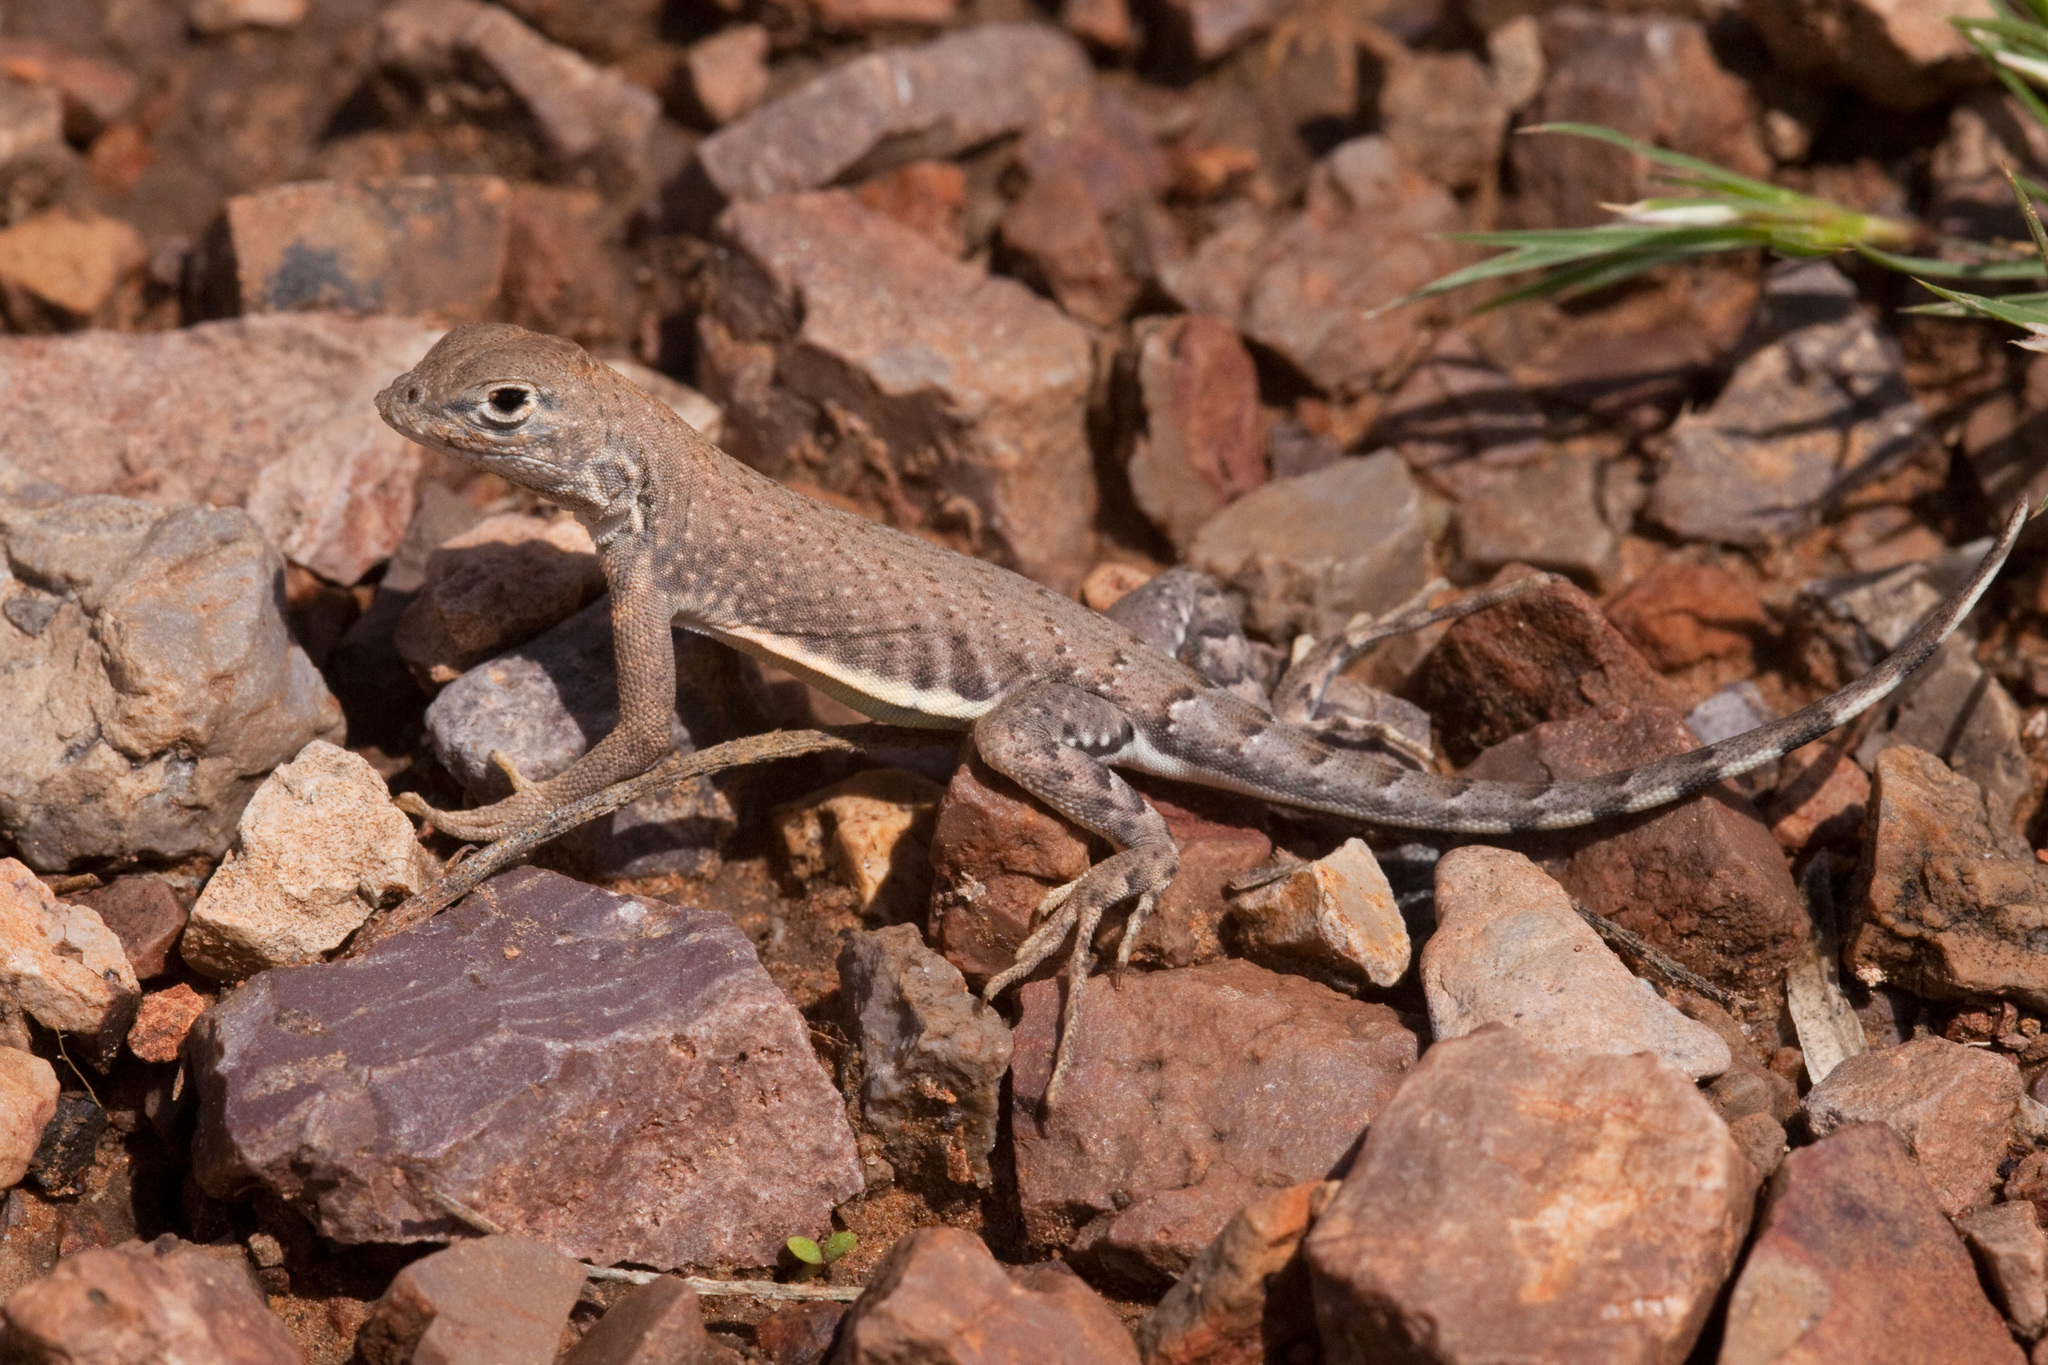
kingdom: Animalia
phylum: Chordata
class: Squamata
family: Phrynosomatidae
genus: Cophosaurus
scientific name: Cophosaurus texanus
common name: Greater earless lizard
